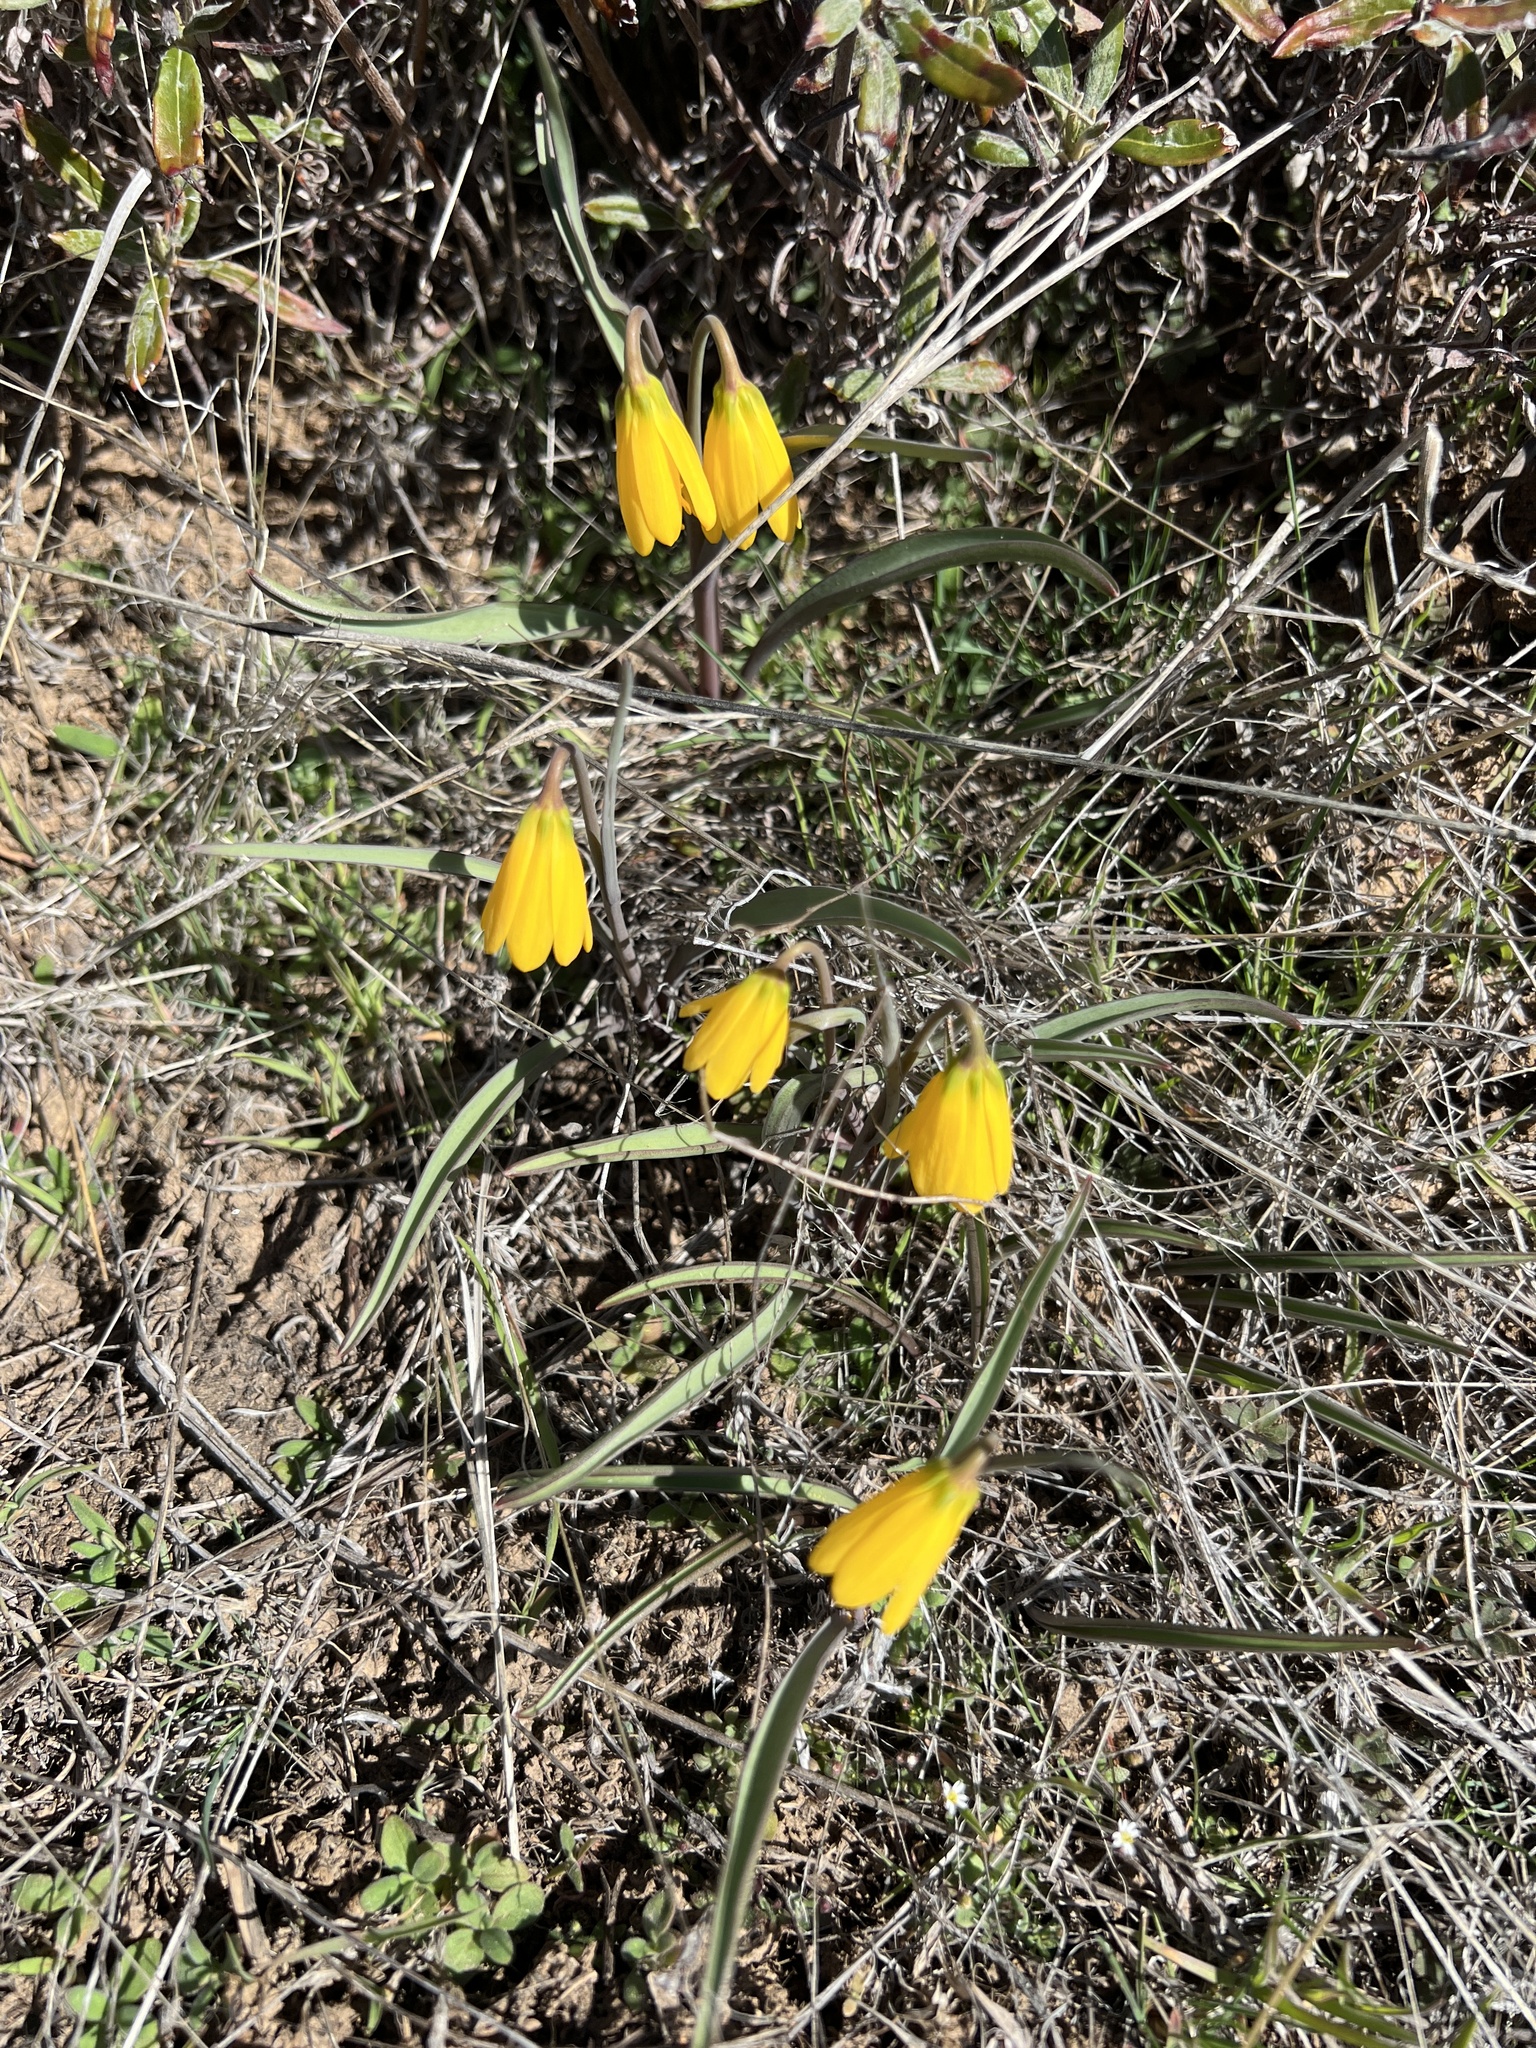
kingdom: Plantae
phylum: Tracheophyta
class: Liliopsida
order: Liliales
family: Liliaceae
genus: Fritillaria
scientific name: Fritillaria pudica
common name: Yellow fritillary
